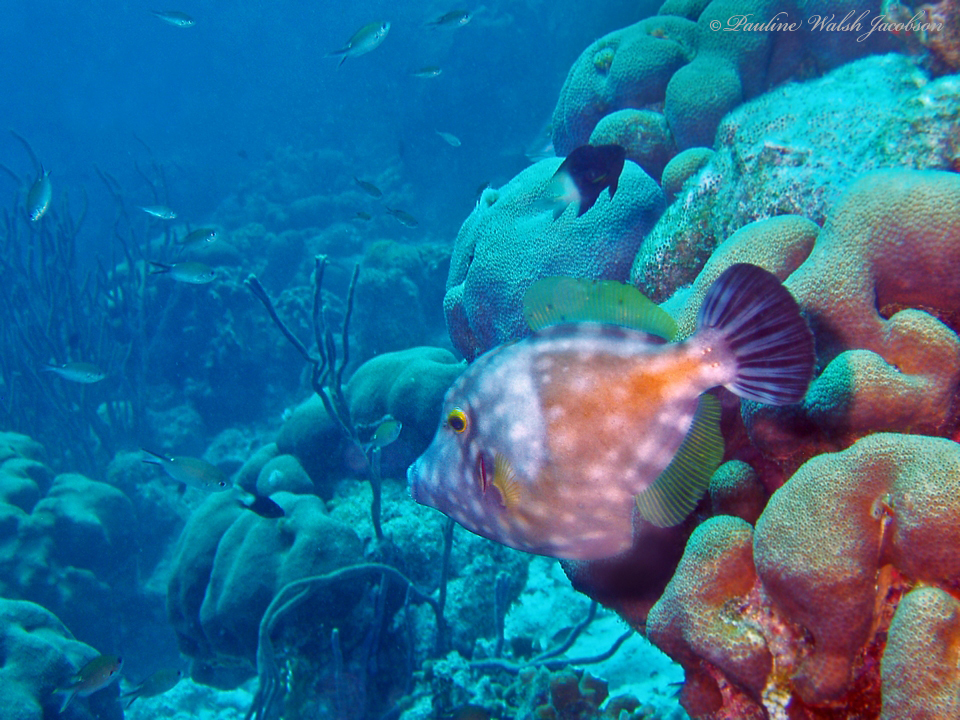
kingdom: Animalia
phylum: Chordata
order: Tetraodontiformes
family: Monacanthidae
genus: Cantherhines
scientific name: Cantherhines macrocerus
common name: Whitespotted filefish
